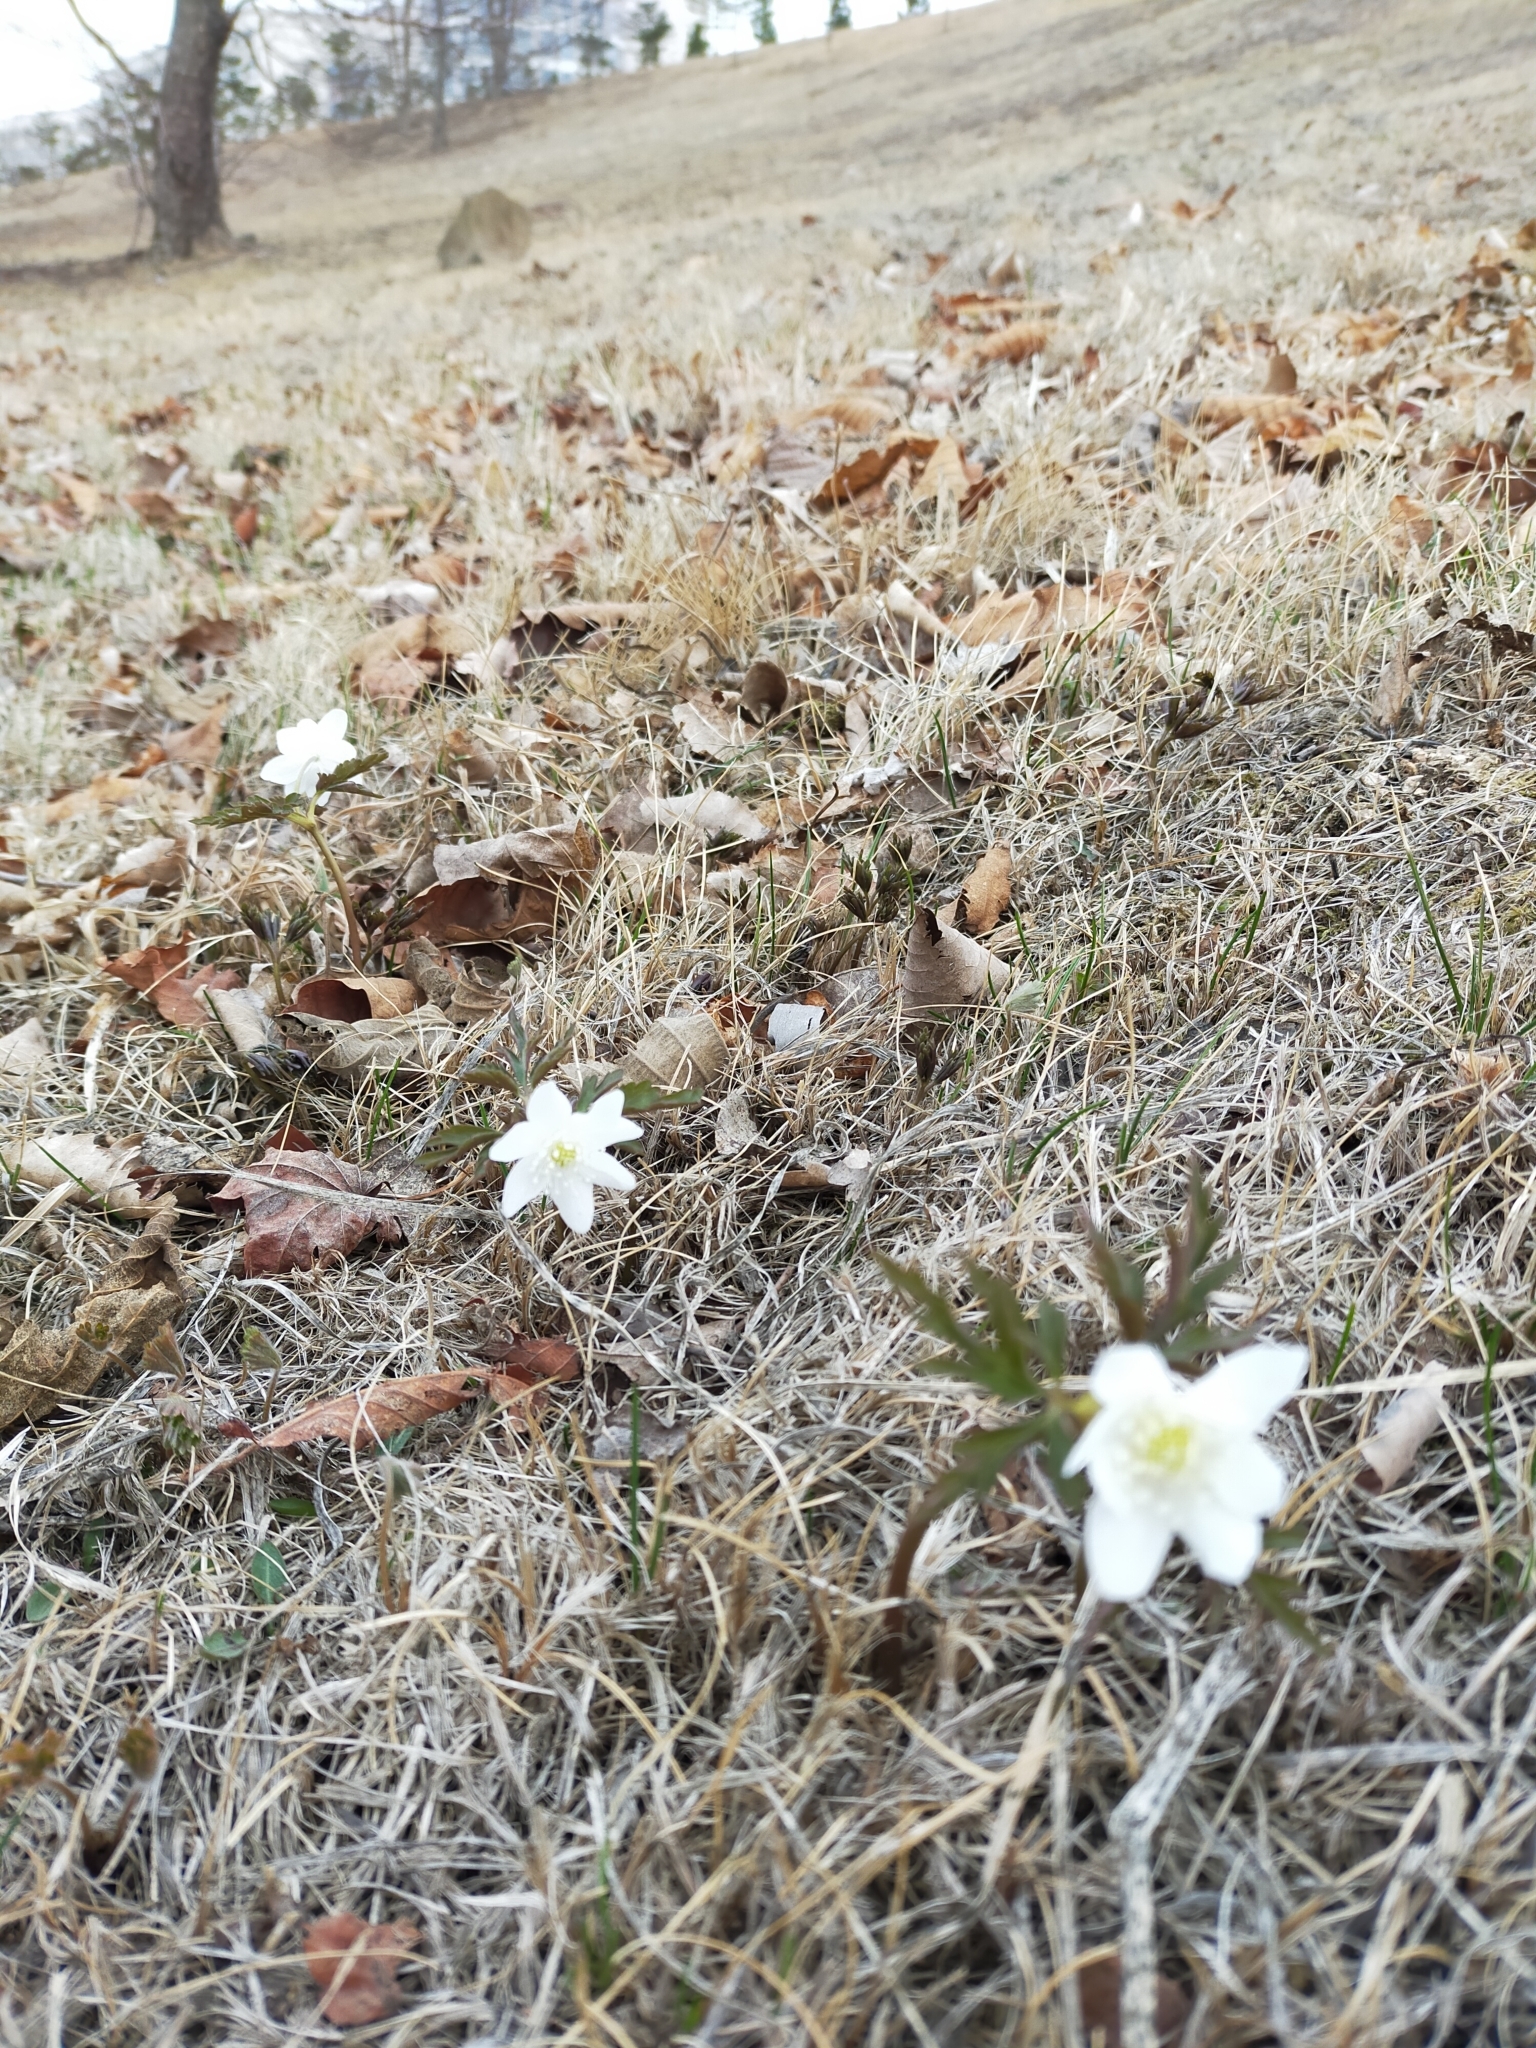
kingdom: Plantae
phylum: Tracheophyta
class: Magnoliopsida
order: Ranunculales
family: Ranunculaceae
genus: Anemone
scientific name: Anemone amurensis
